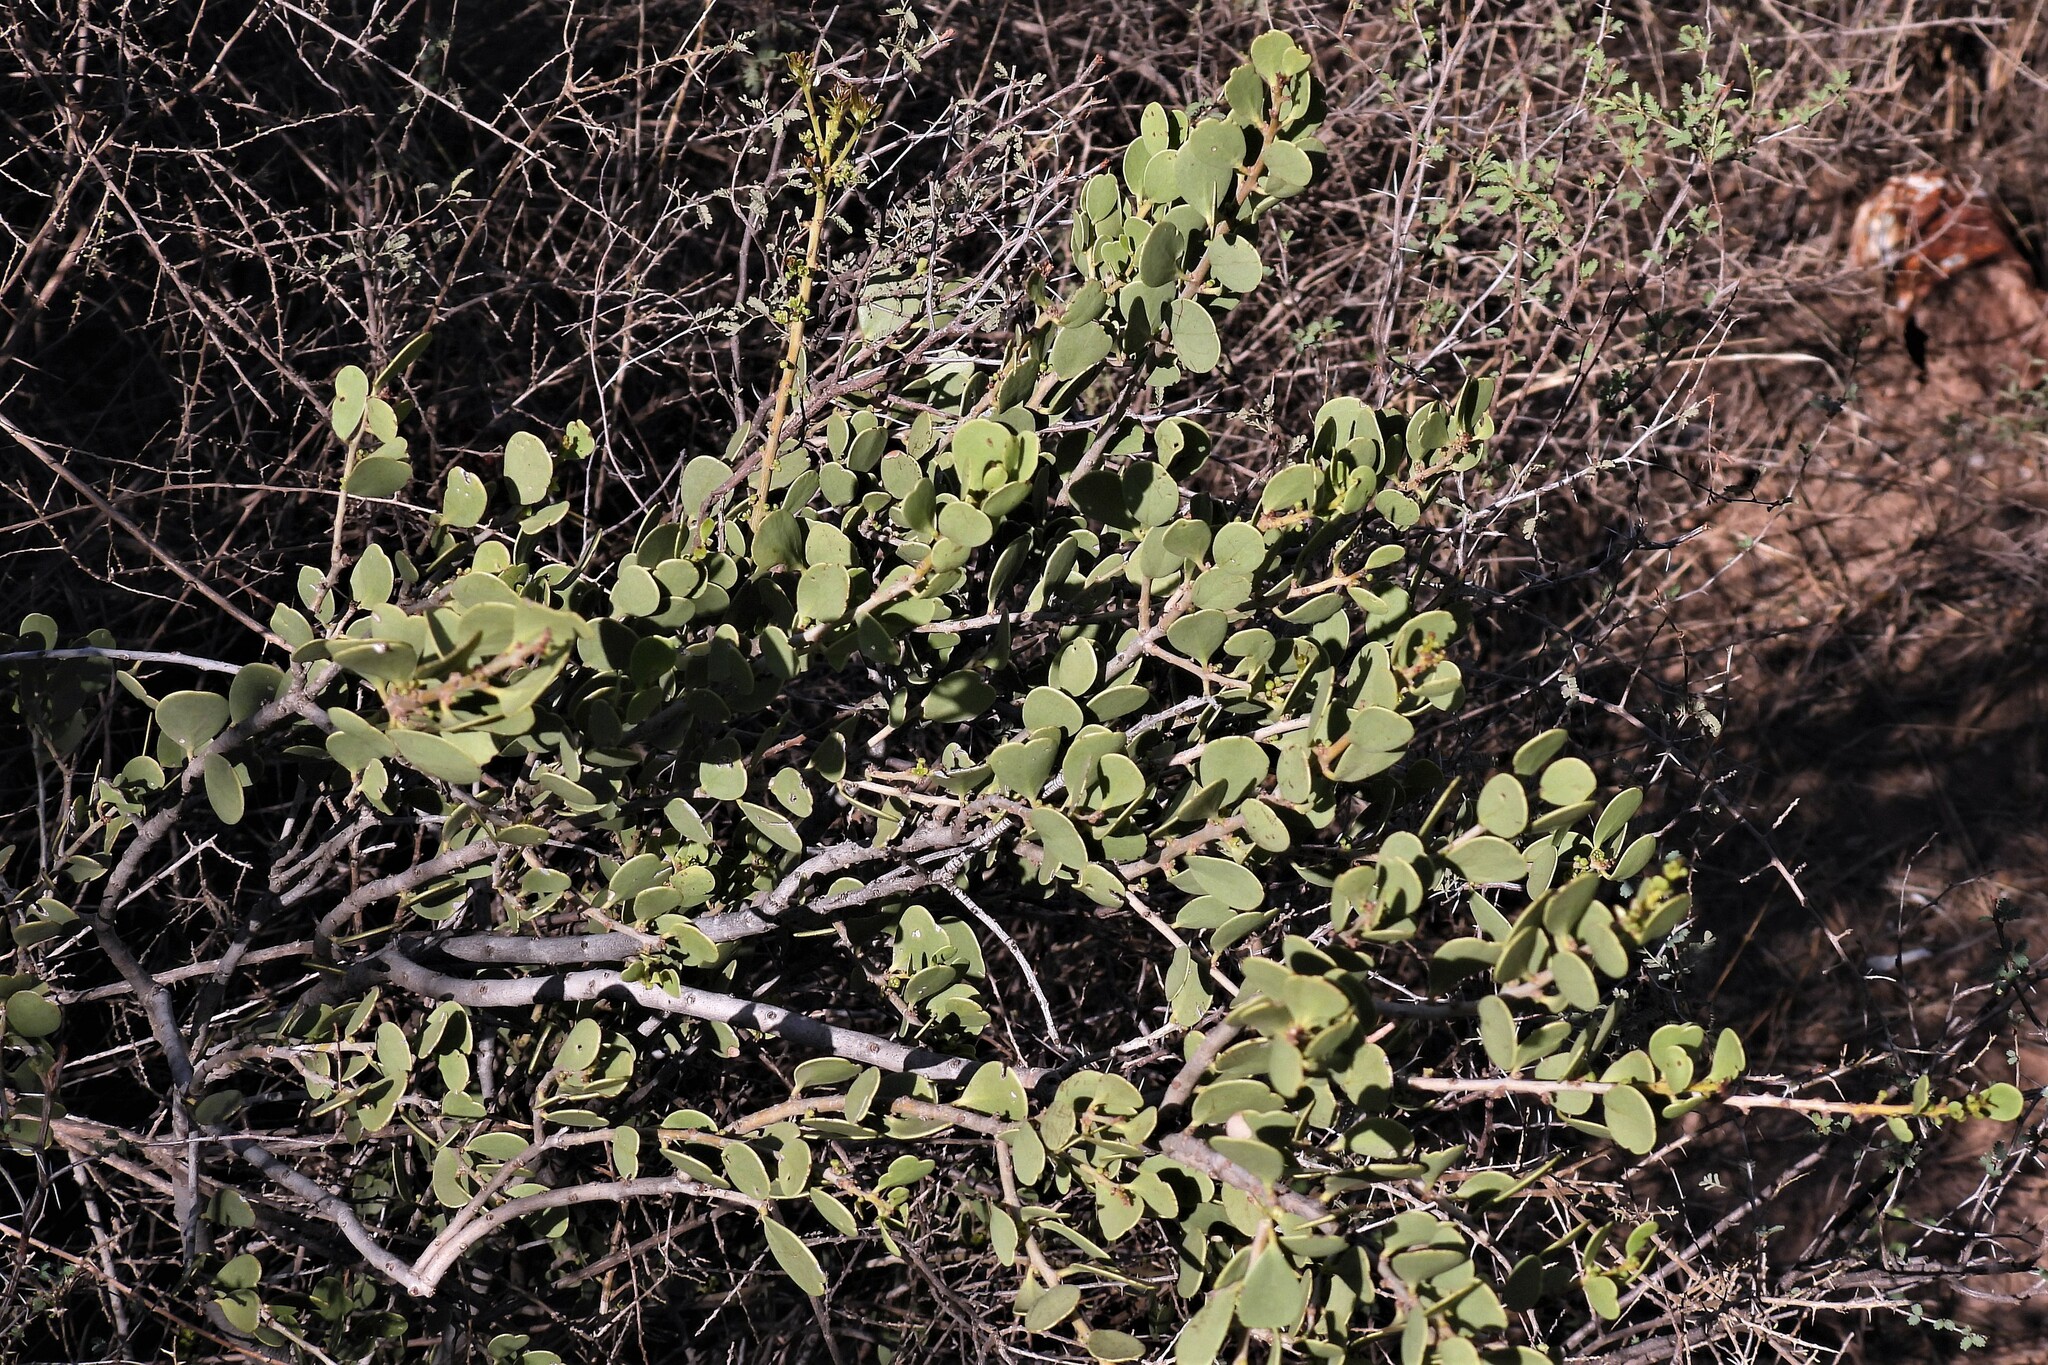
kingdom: Plantae
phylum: Tracheophyta
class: Magnoliopsida
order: Celastrales
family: Celastraceae
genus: Tricerma
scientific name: Tricerma vitis-idaeum
